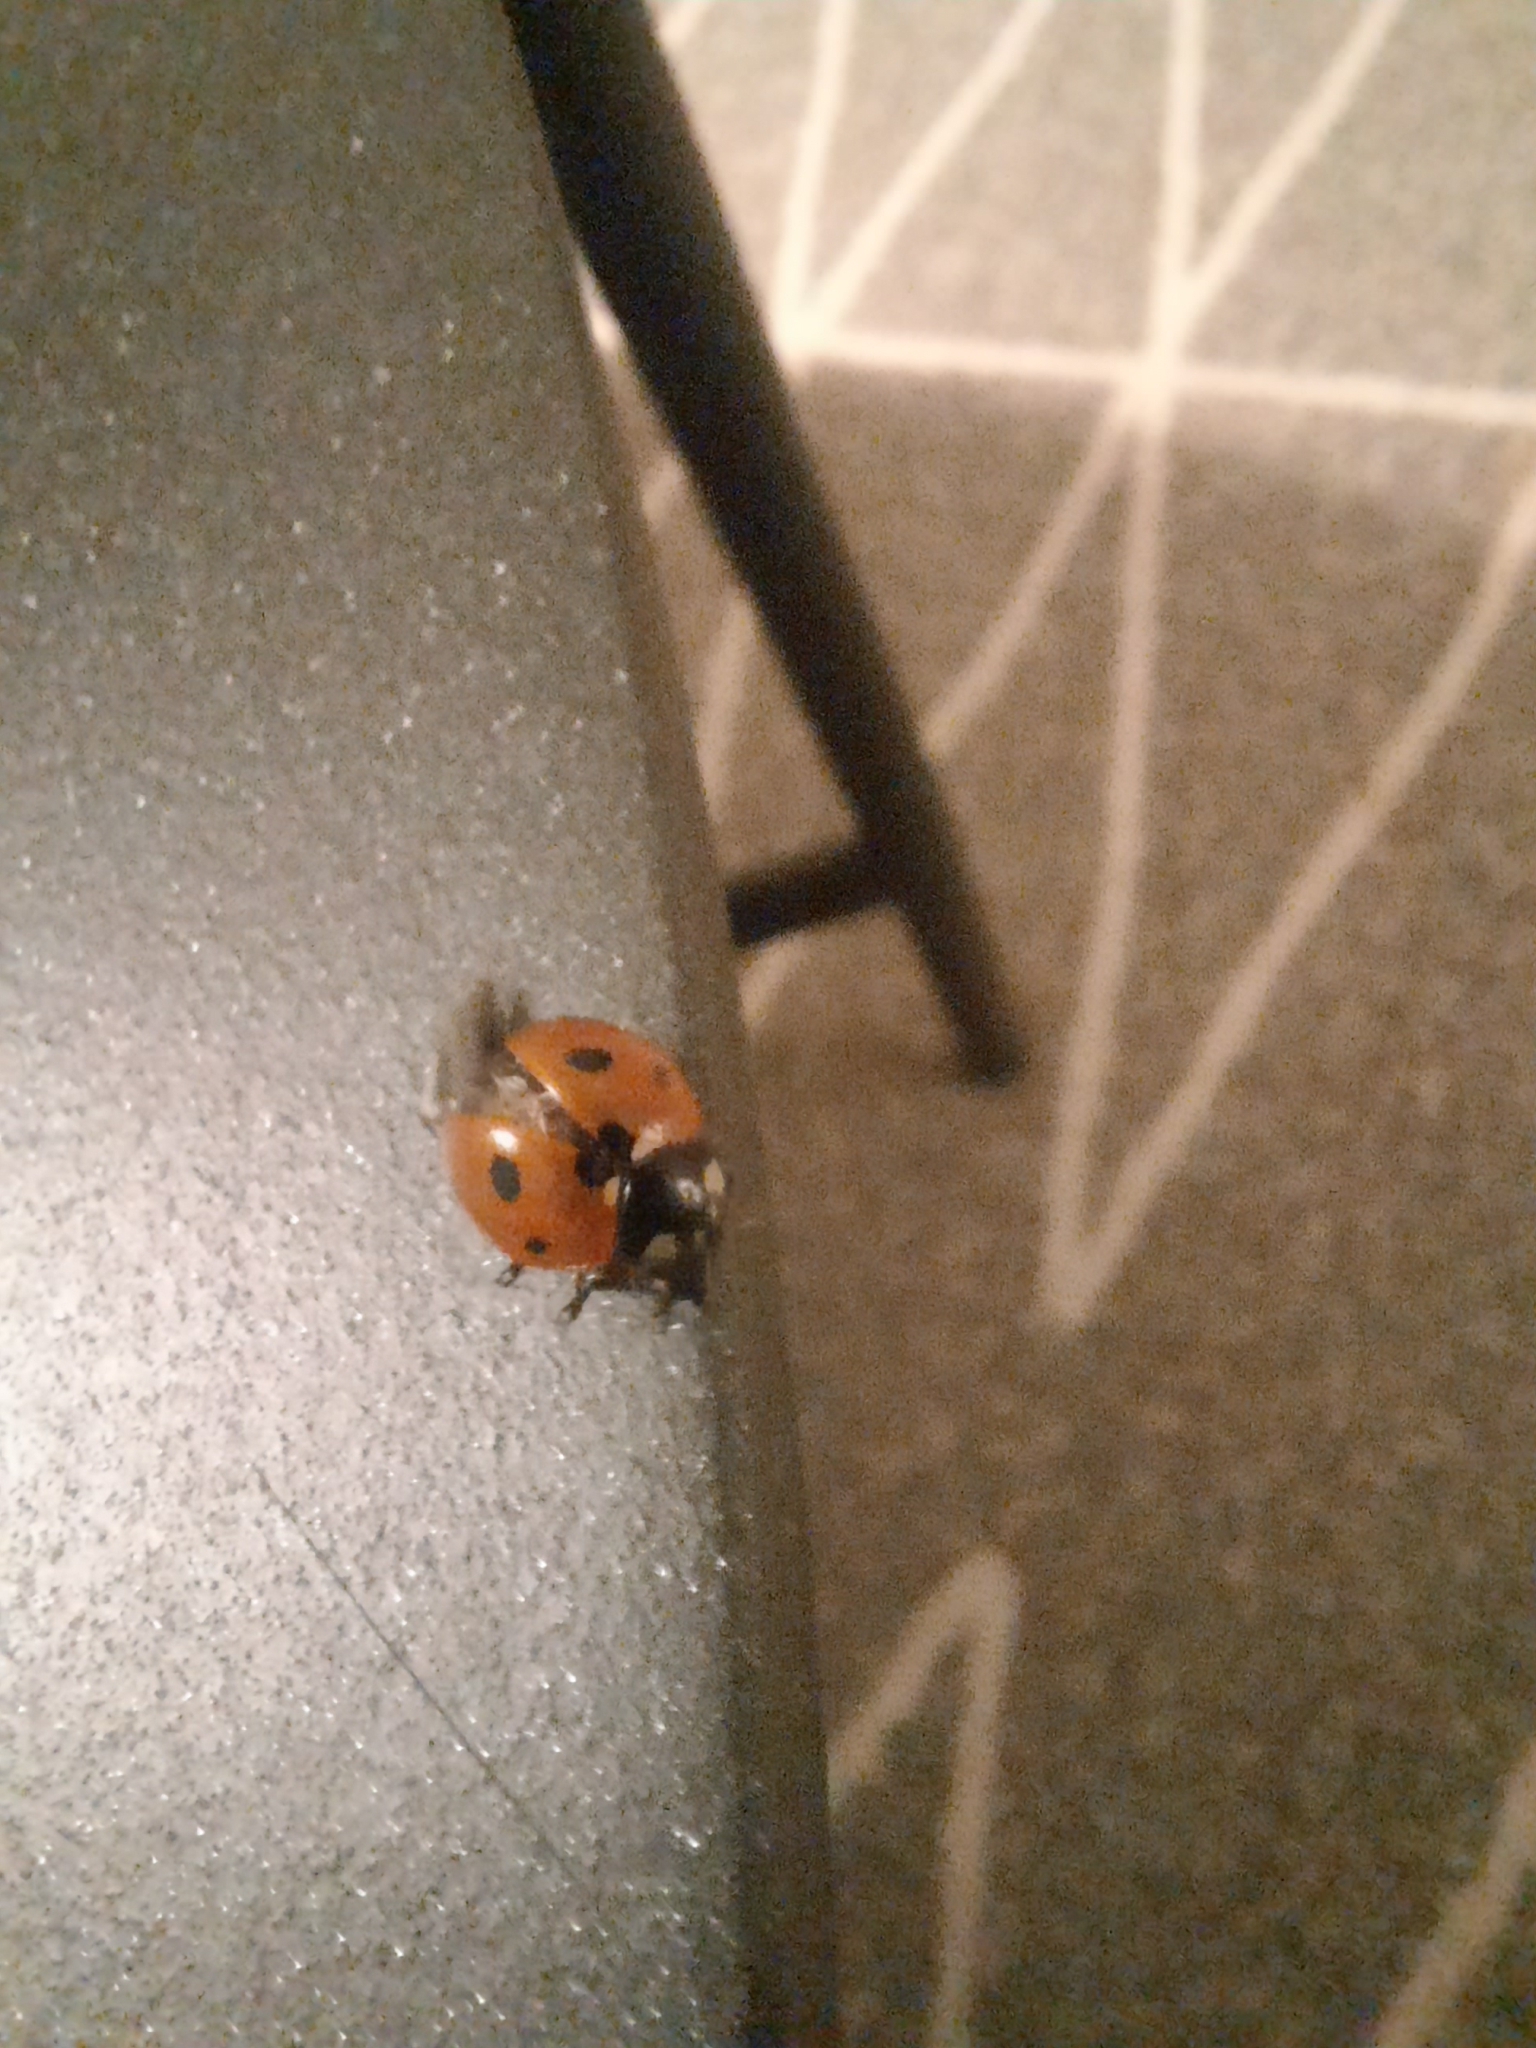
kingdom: Animalia
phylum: Arthropoda
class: Insecta
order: Coleoptera
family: Coccinellidae
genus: Coccinella
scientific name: Coccinella septempunctata
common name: Sevenspotted lady beetle
